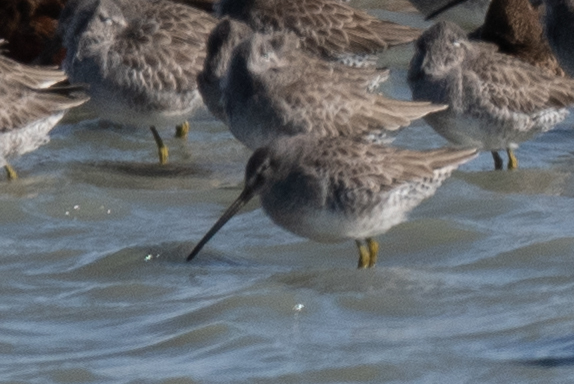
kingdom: Animalia
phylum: Chordata
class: Aves
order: Charadriiformes
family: Scolopacidae
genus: Limnodromus
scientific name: Limnodromus scolopaceus
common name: Long-billed dowitcher
